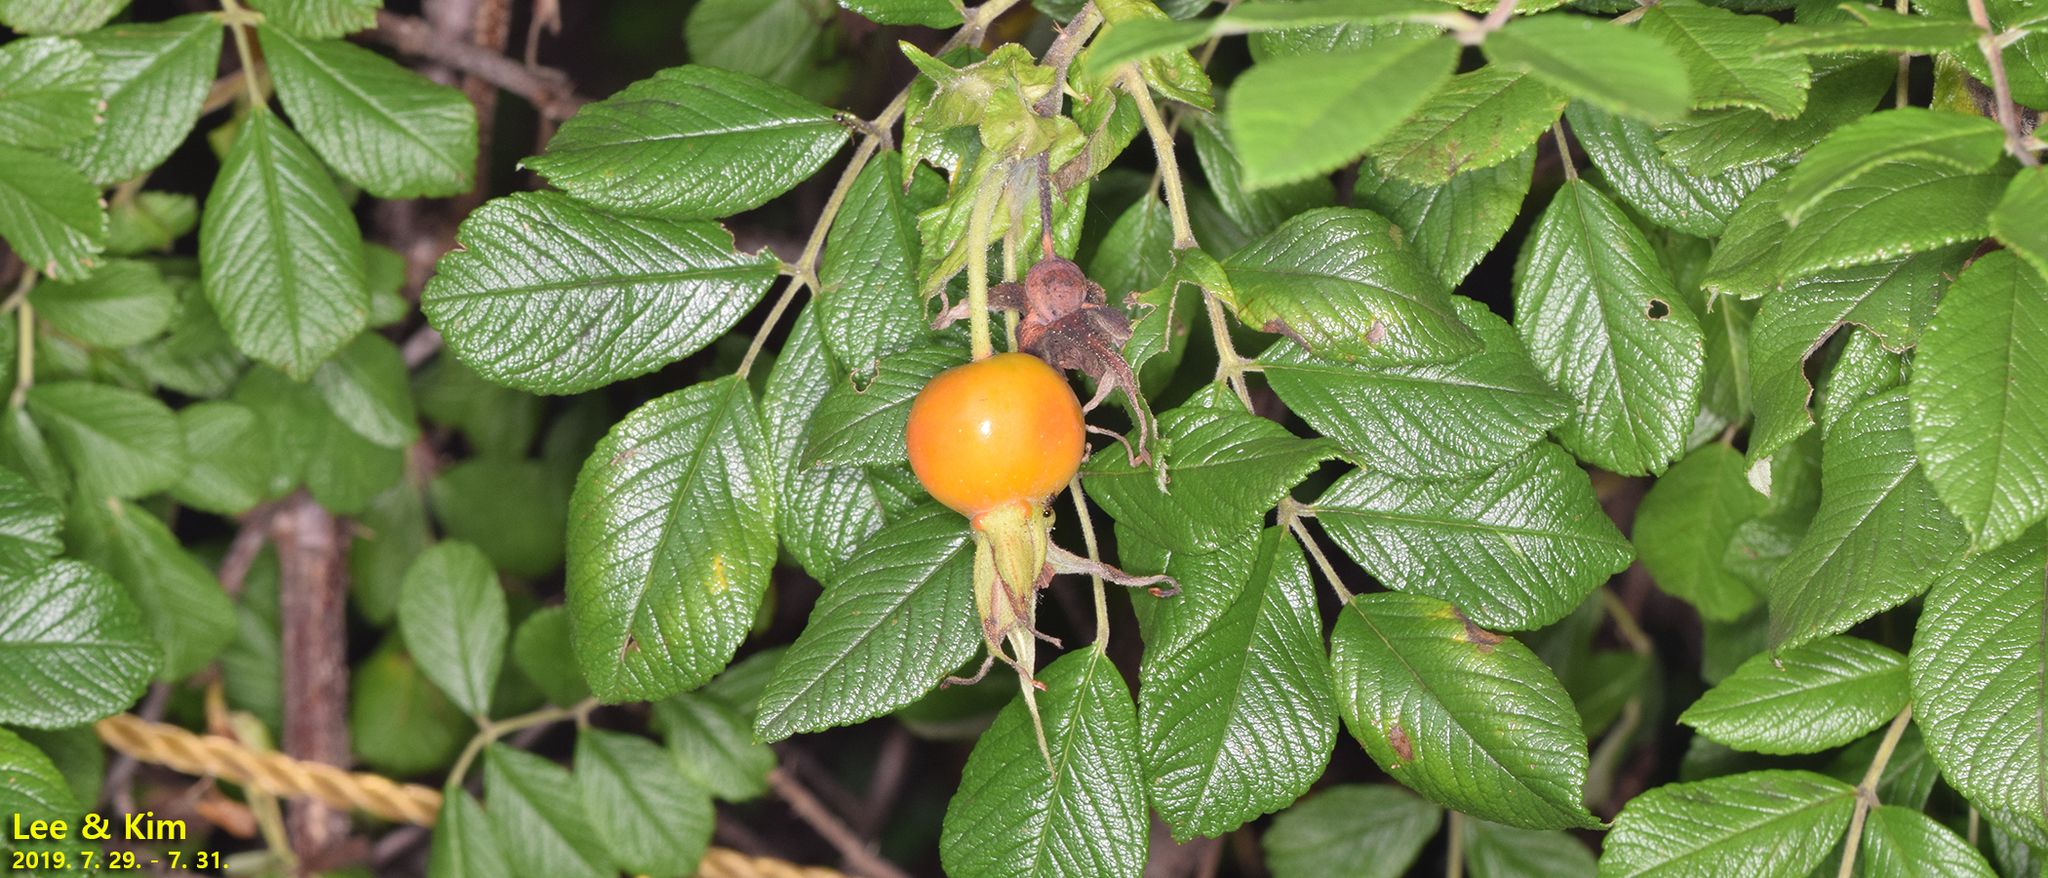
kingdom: Plantae
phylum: Tracheophyta
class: Magnoliopsida
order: Rosales
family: Rosaceae
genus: Rosa
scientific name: Rosa rugosa
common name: Japanese rose
